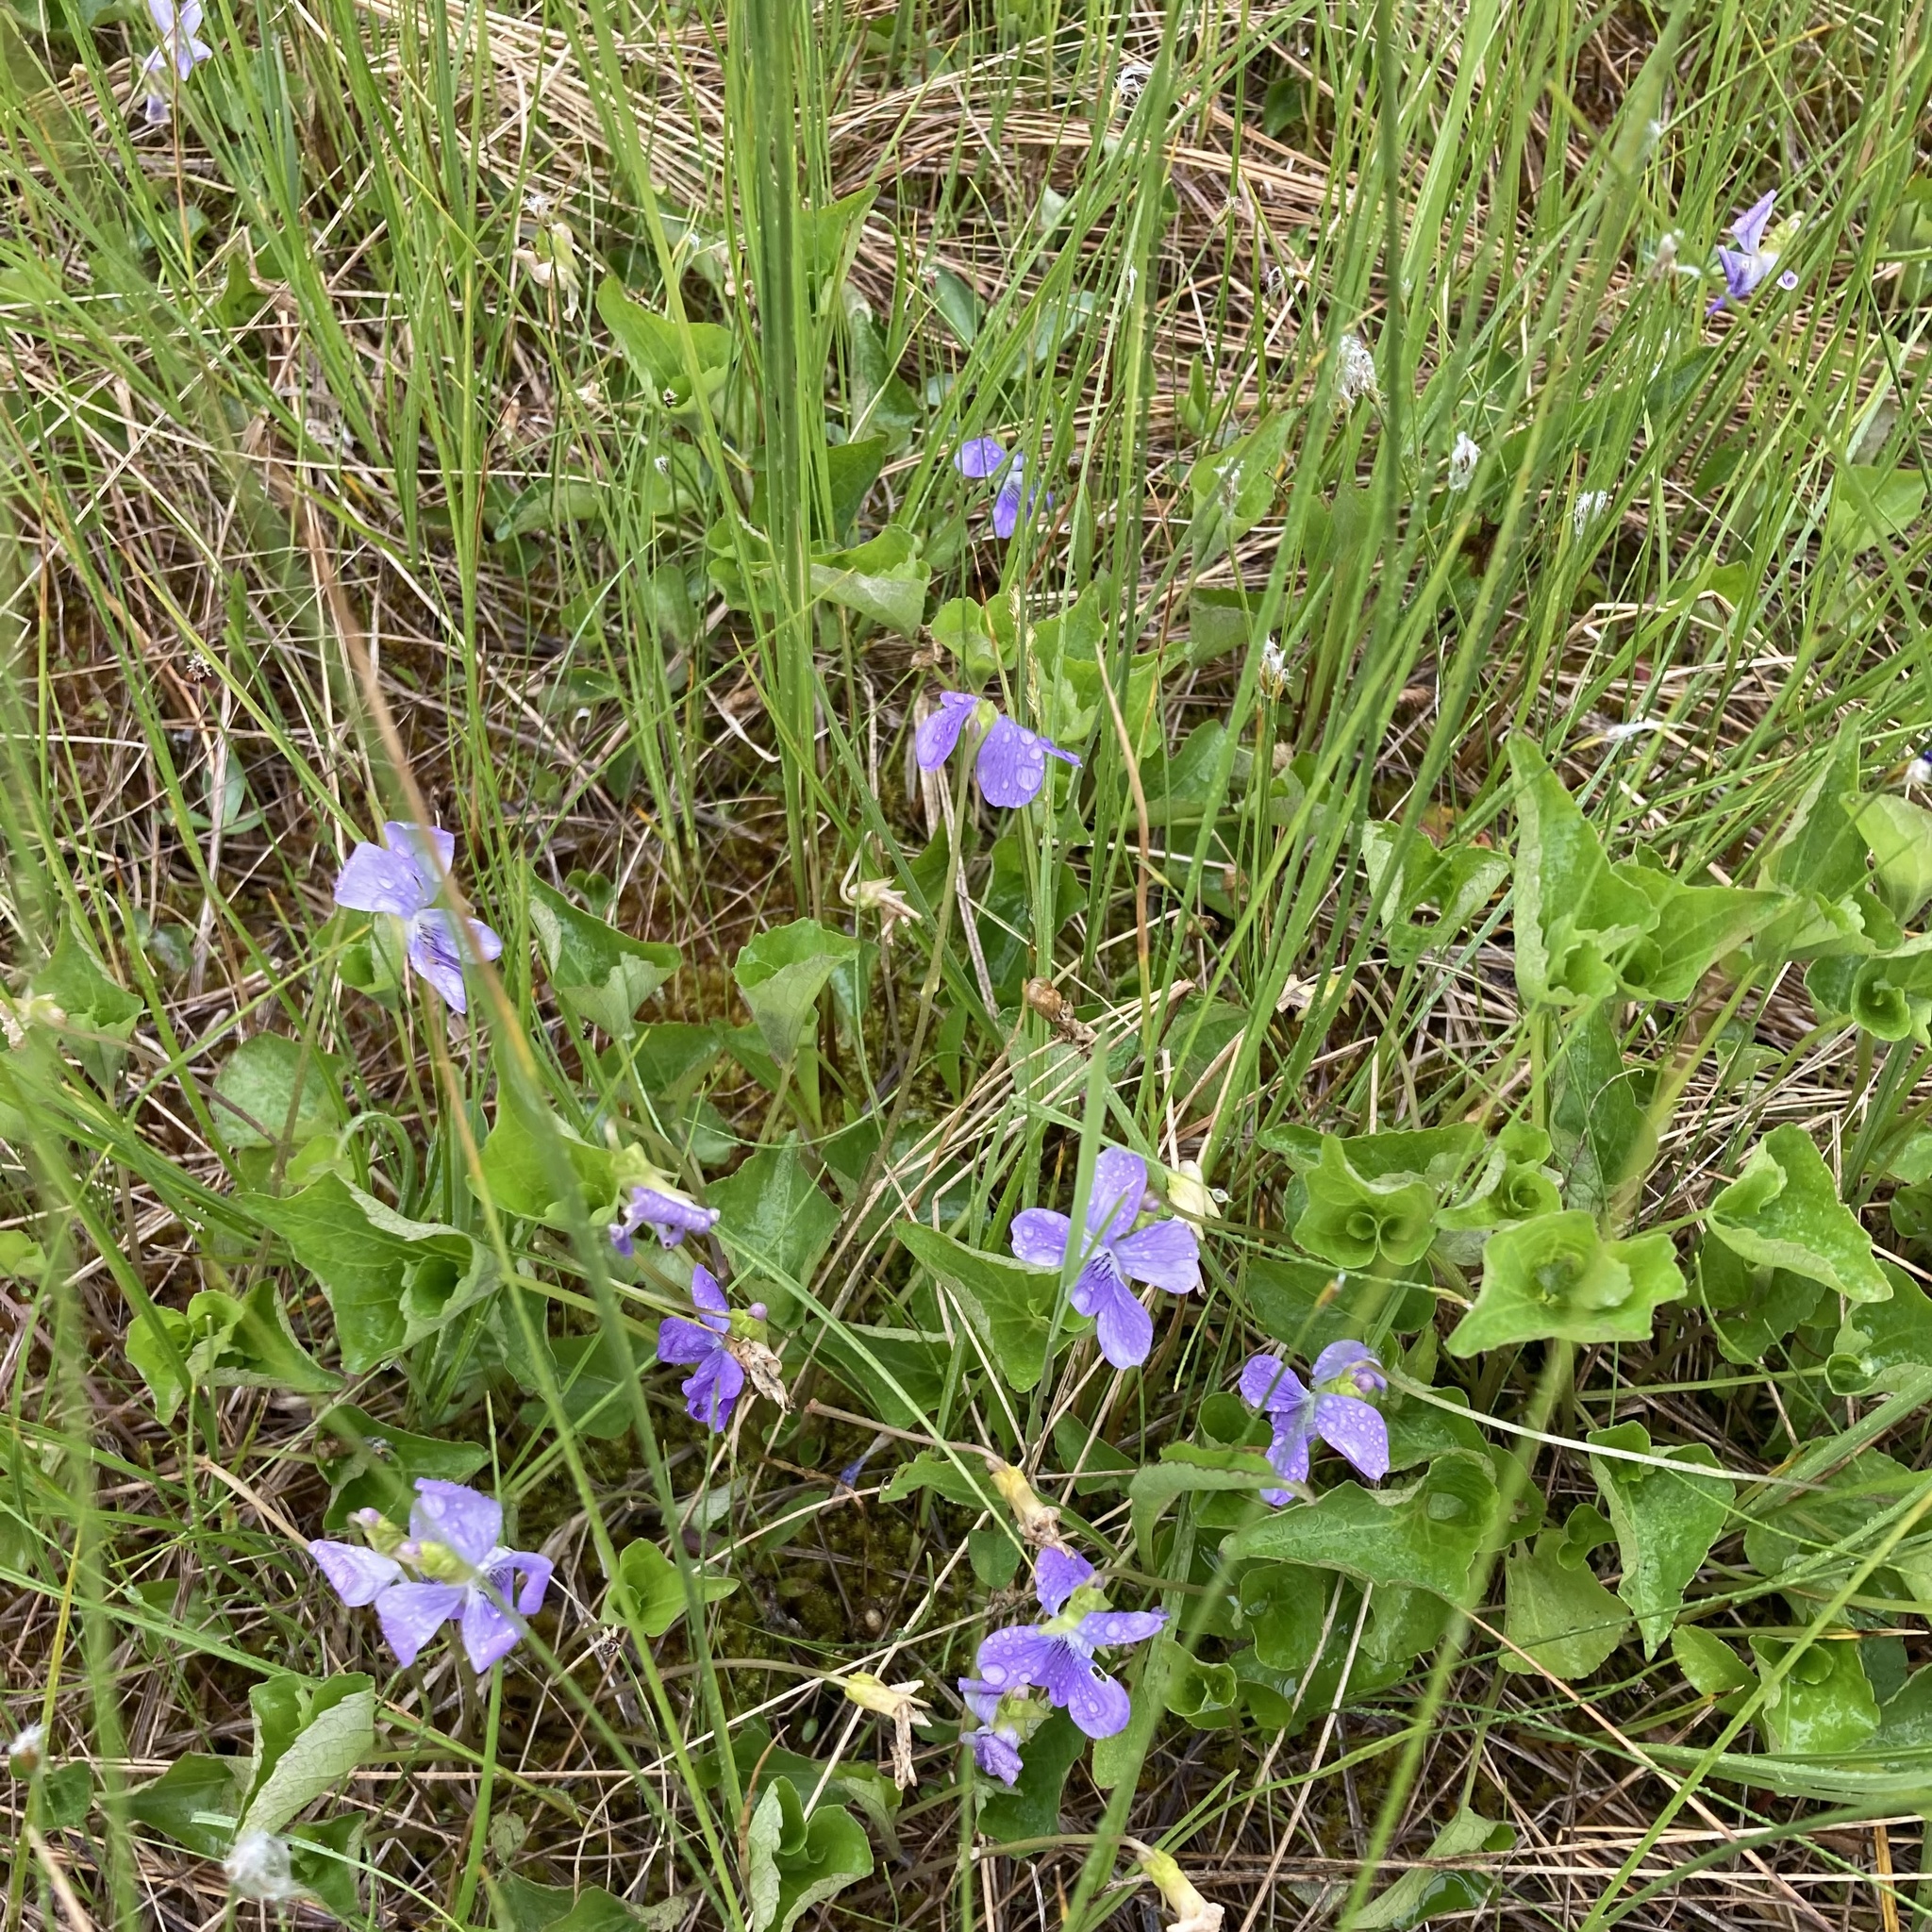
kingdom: Plantae
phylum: Tracheophyta
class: Magnoliopsida
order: Malpighiales
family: Violaceae
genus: Viola
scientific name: Viola cucullata
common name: Marsh blue violet
